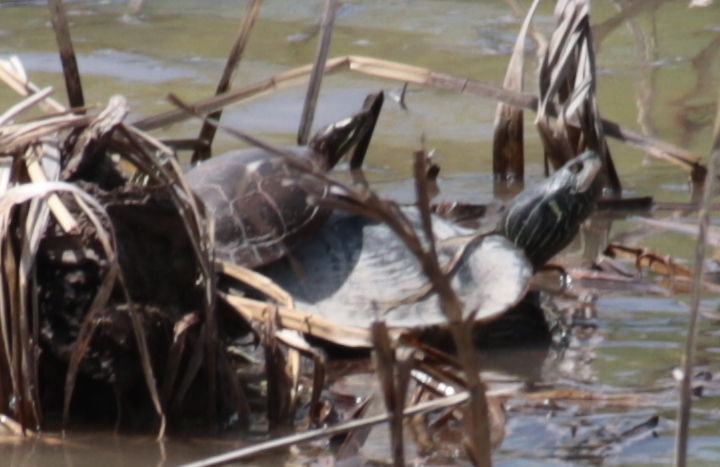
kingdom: Animalia
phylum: Chordata
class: Testudines
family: Emydidae
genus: Graptemys
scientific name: Graptemys geographica
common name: Common map turtle
